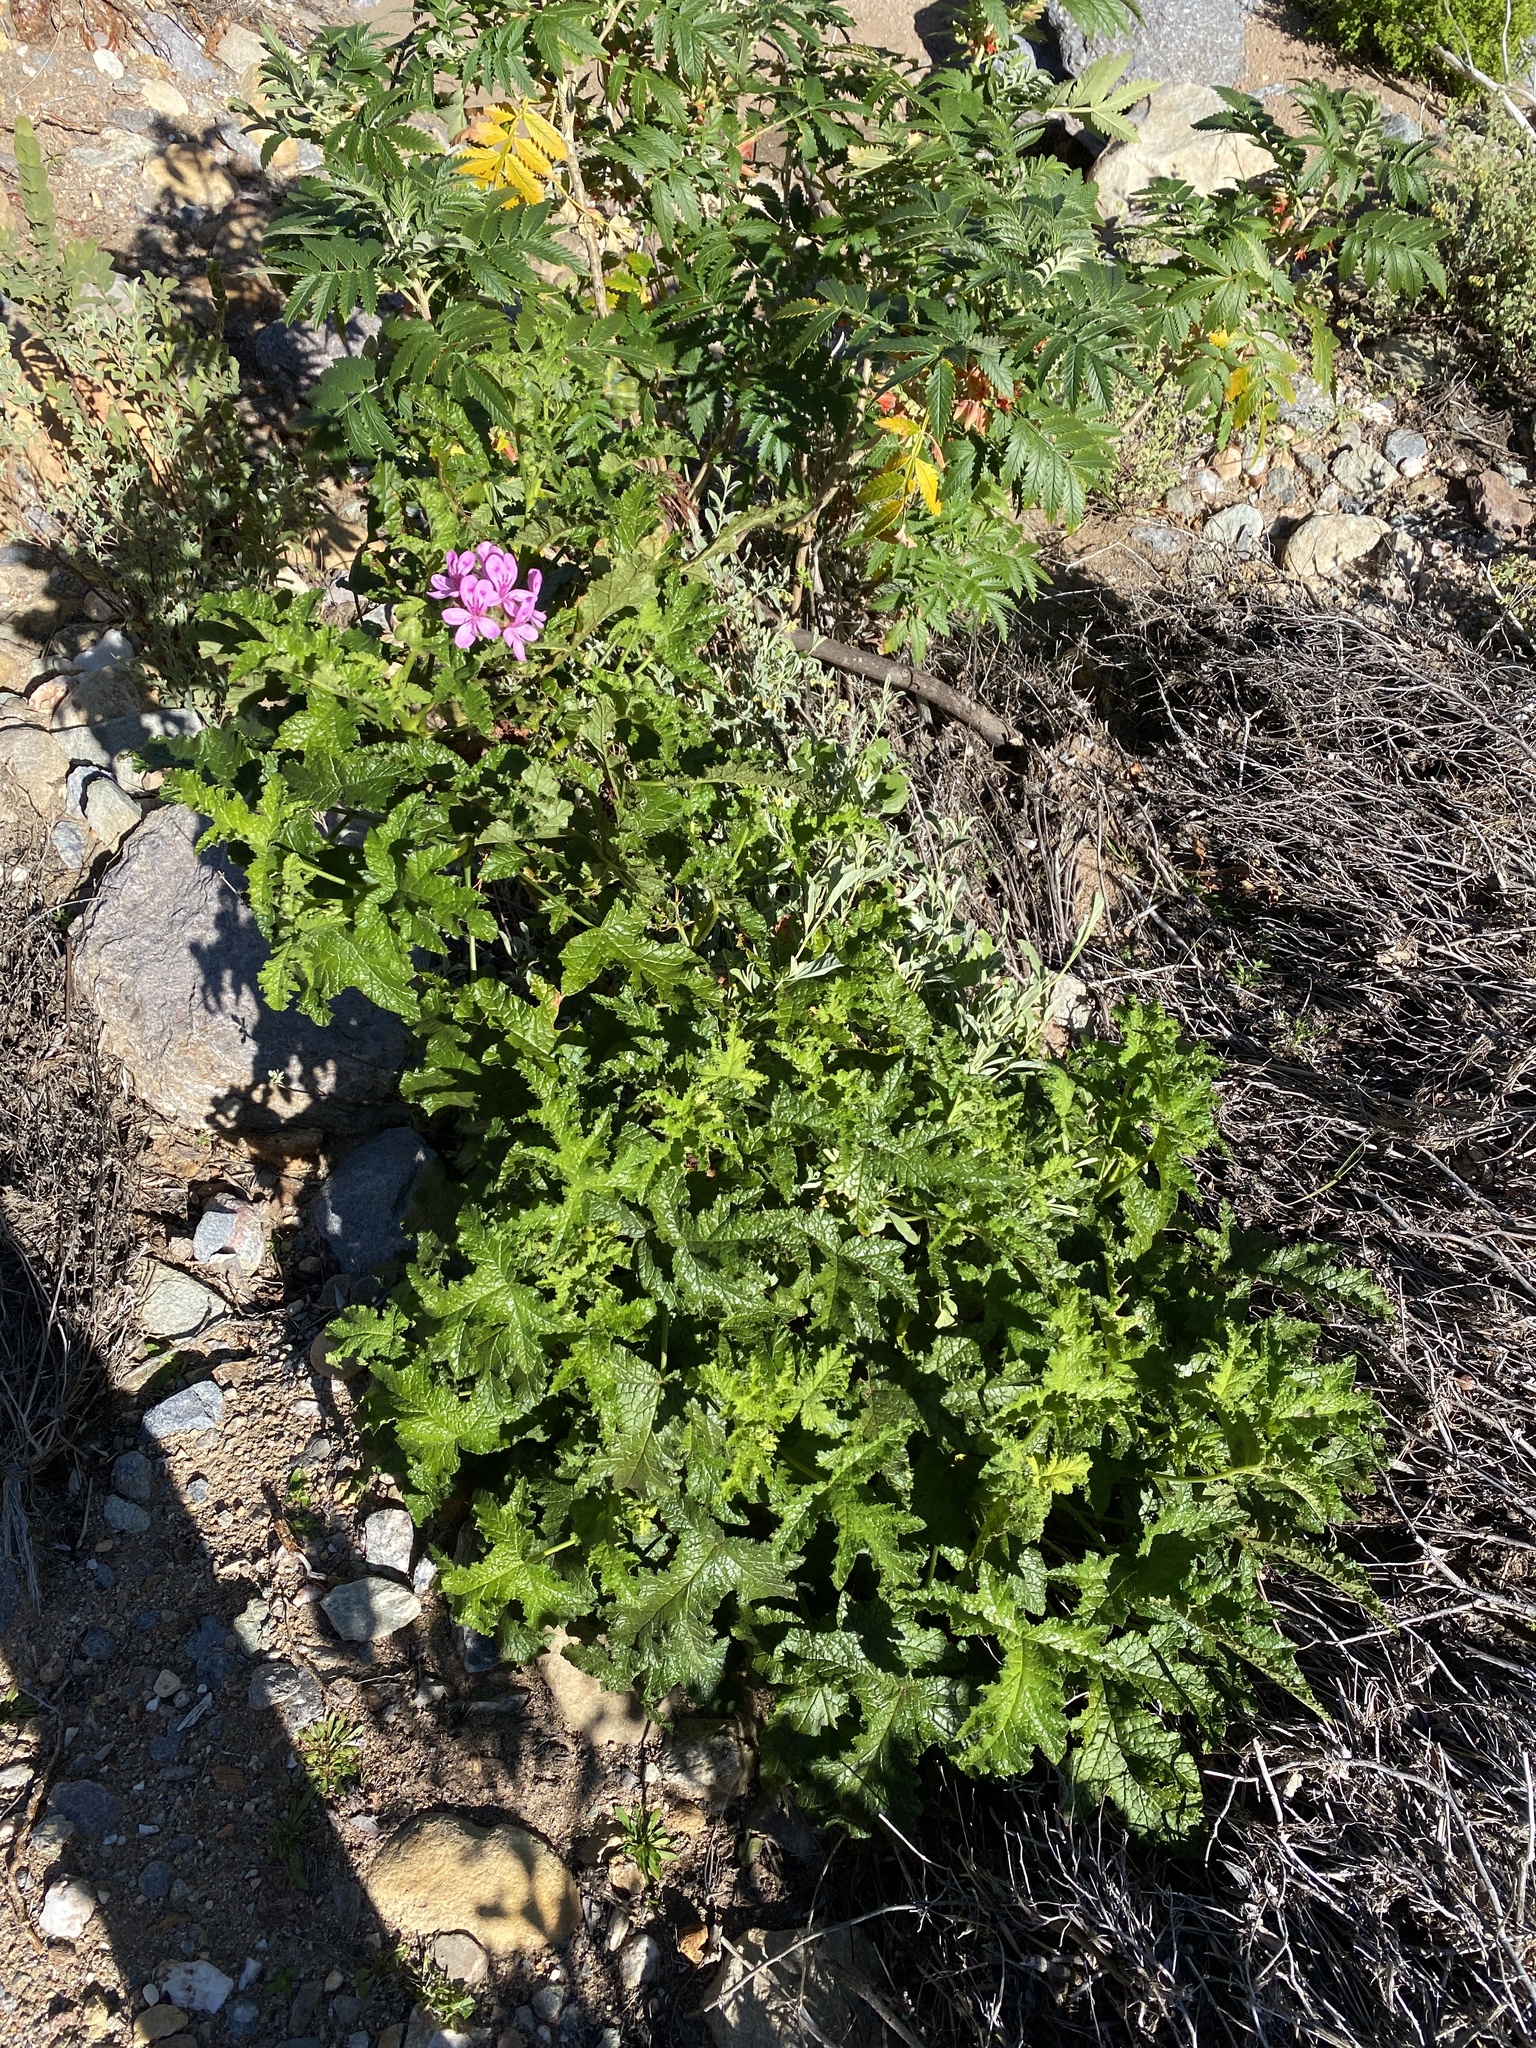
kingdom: Plantae
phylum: Tracheophyta
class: Magnoliopsida
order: Geraniales
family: Geraniaceae
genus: Pelargonium
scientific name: Pelargonium glutinosum
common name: Pheasant-foot geranium
